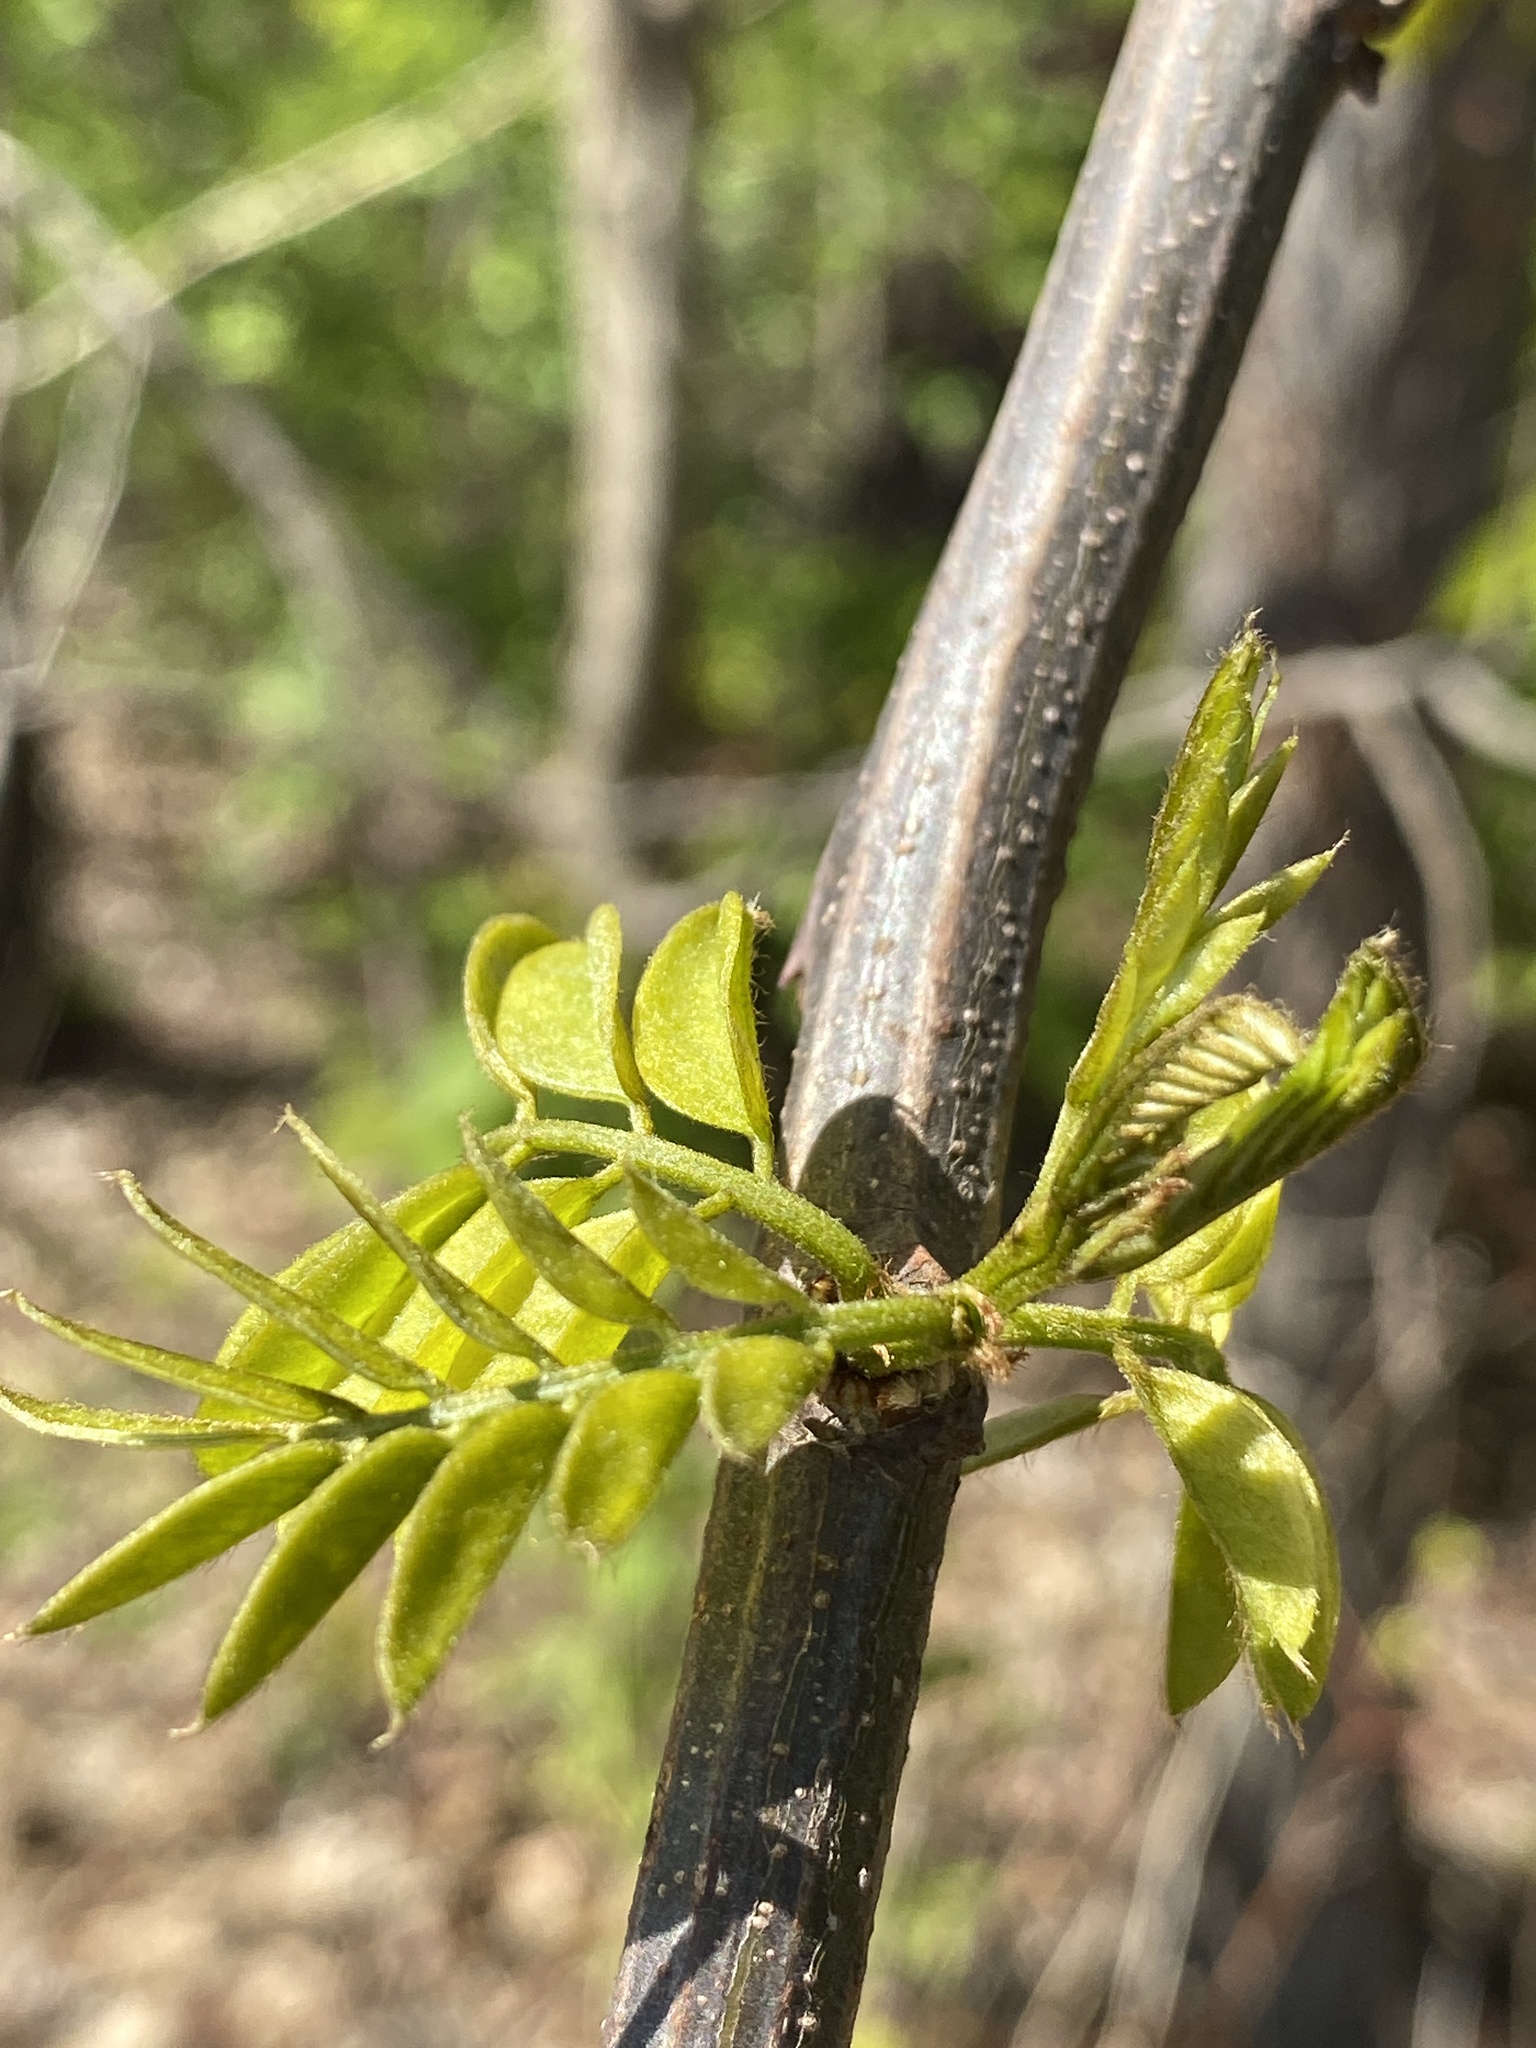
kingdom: Plantae
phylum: Tracheophyta
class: Magnoliopsida
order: Fabales
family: Fabaceae
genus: Robinia
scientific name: Robinia pseudoacacia
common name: Black locust
